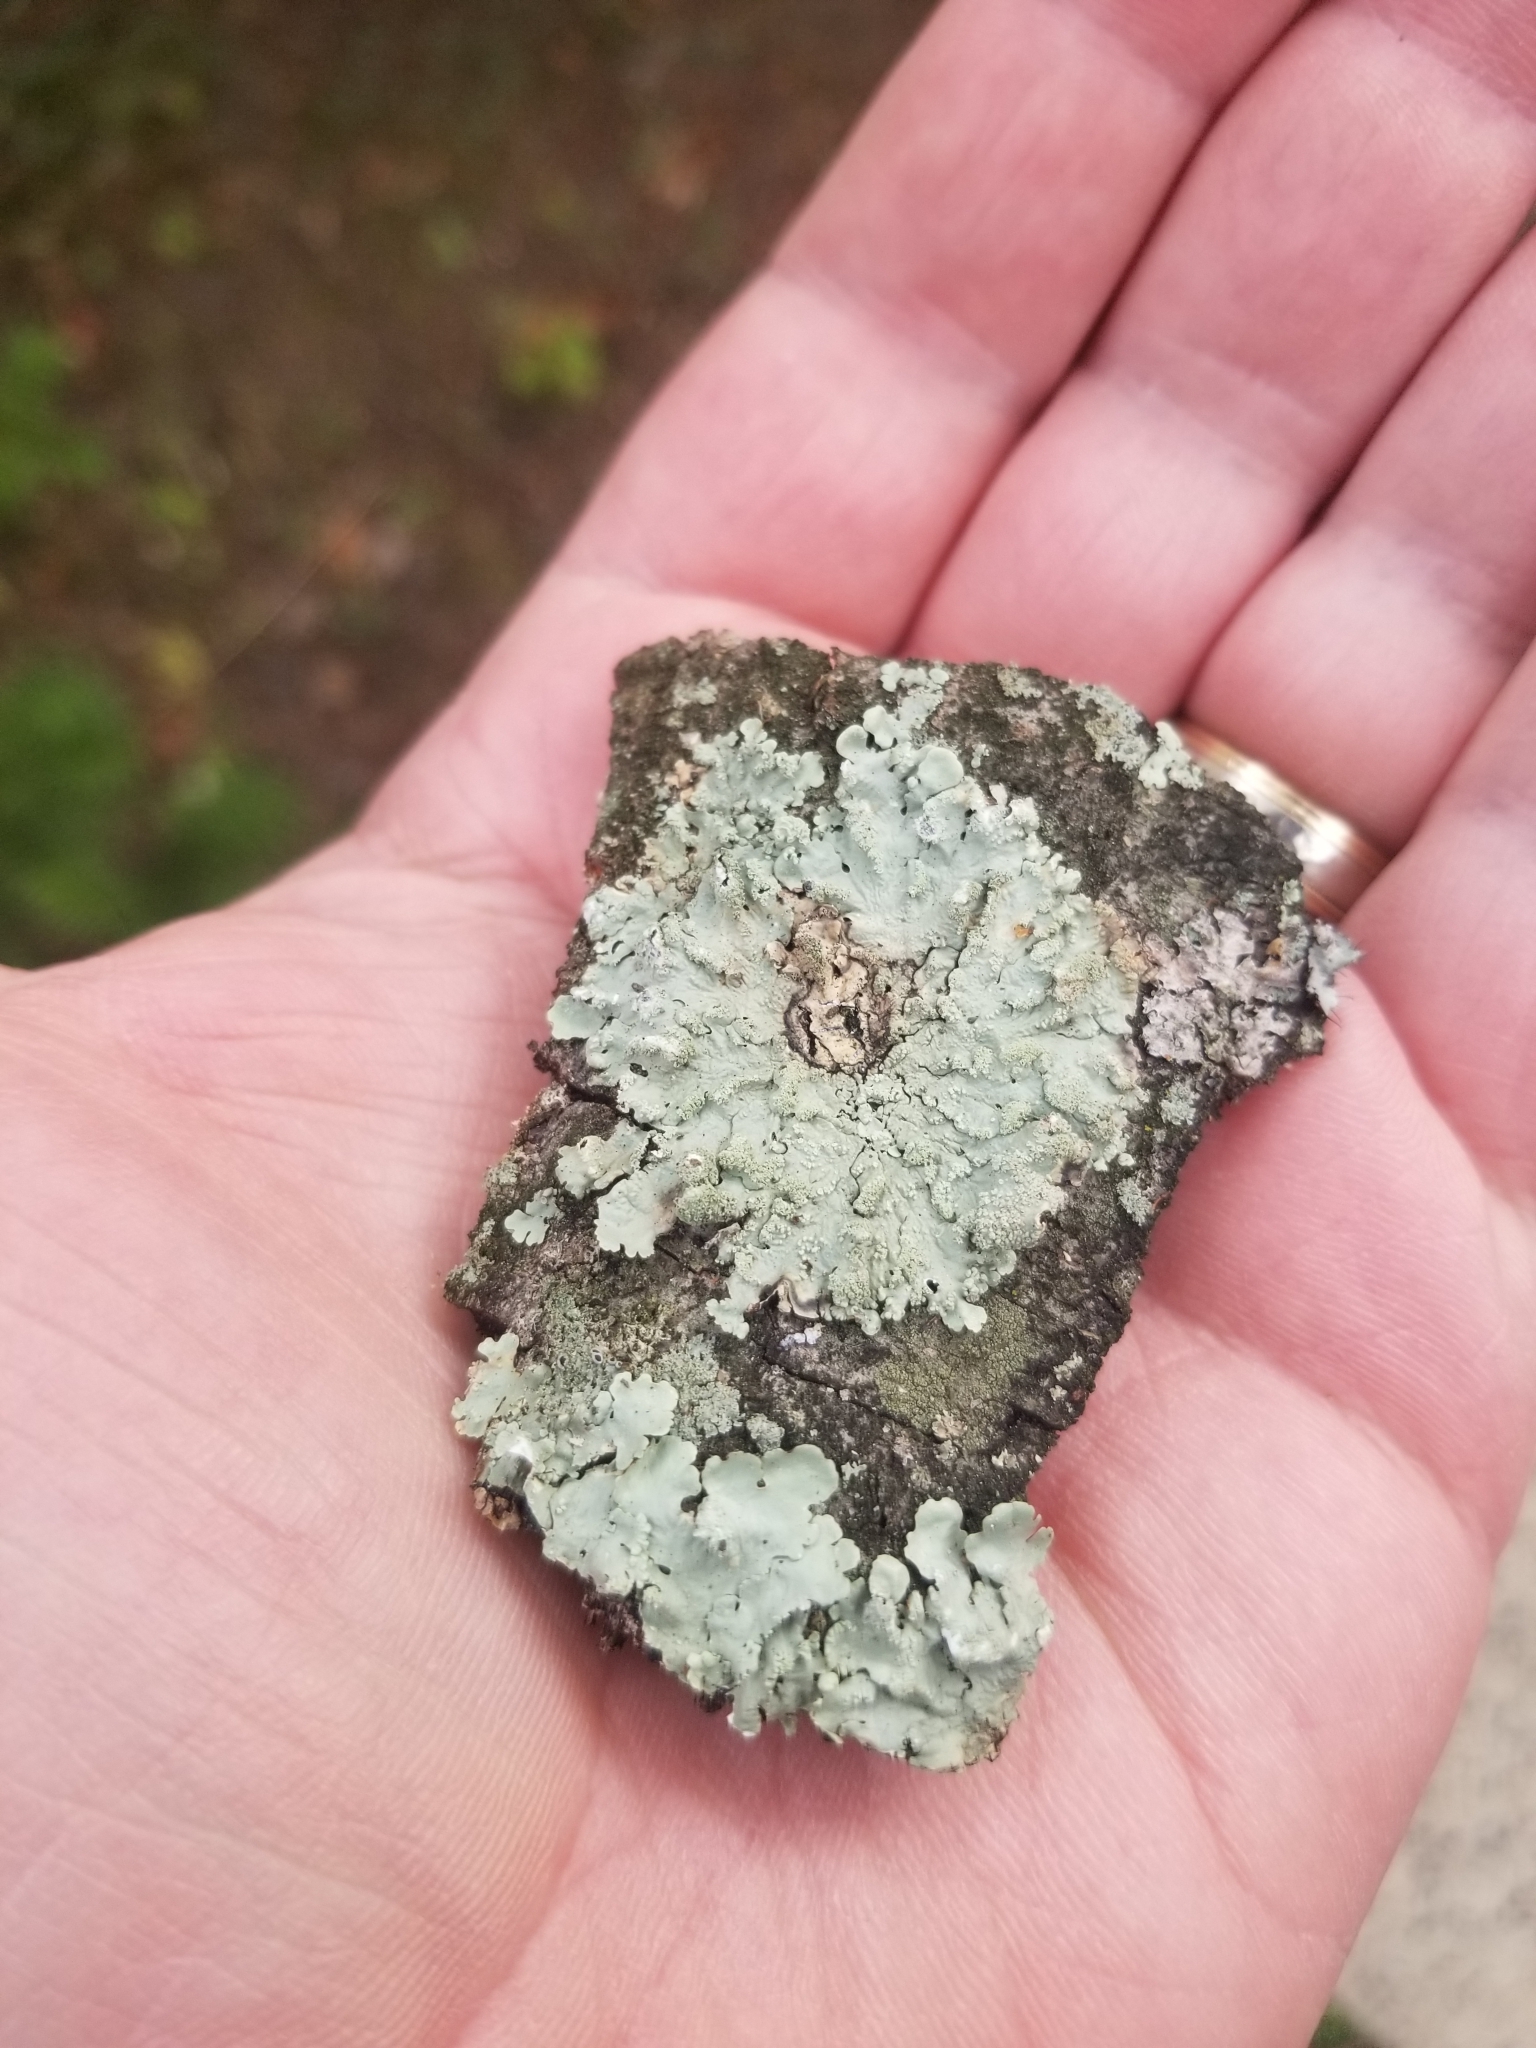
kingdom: Fungi
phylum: Ascomycota
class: Lecanoromycetes
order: Lecanorales
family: Parmeliaceae
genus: Flavoparmelia
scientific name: Flavoparmelia caperata
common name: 40-mile per hour lichen
